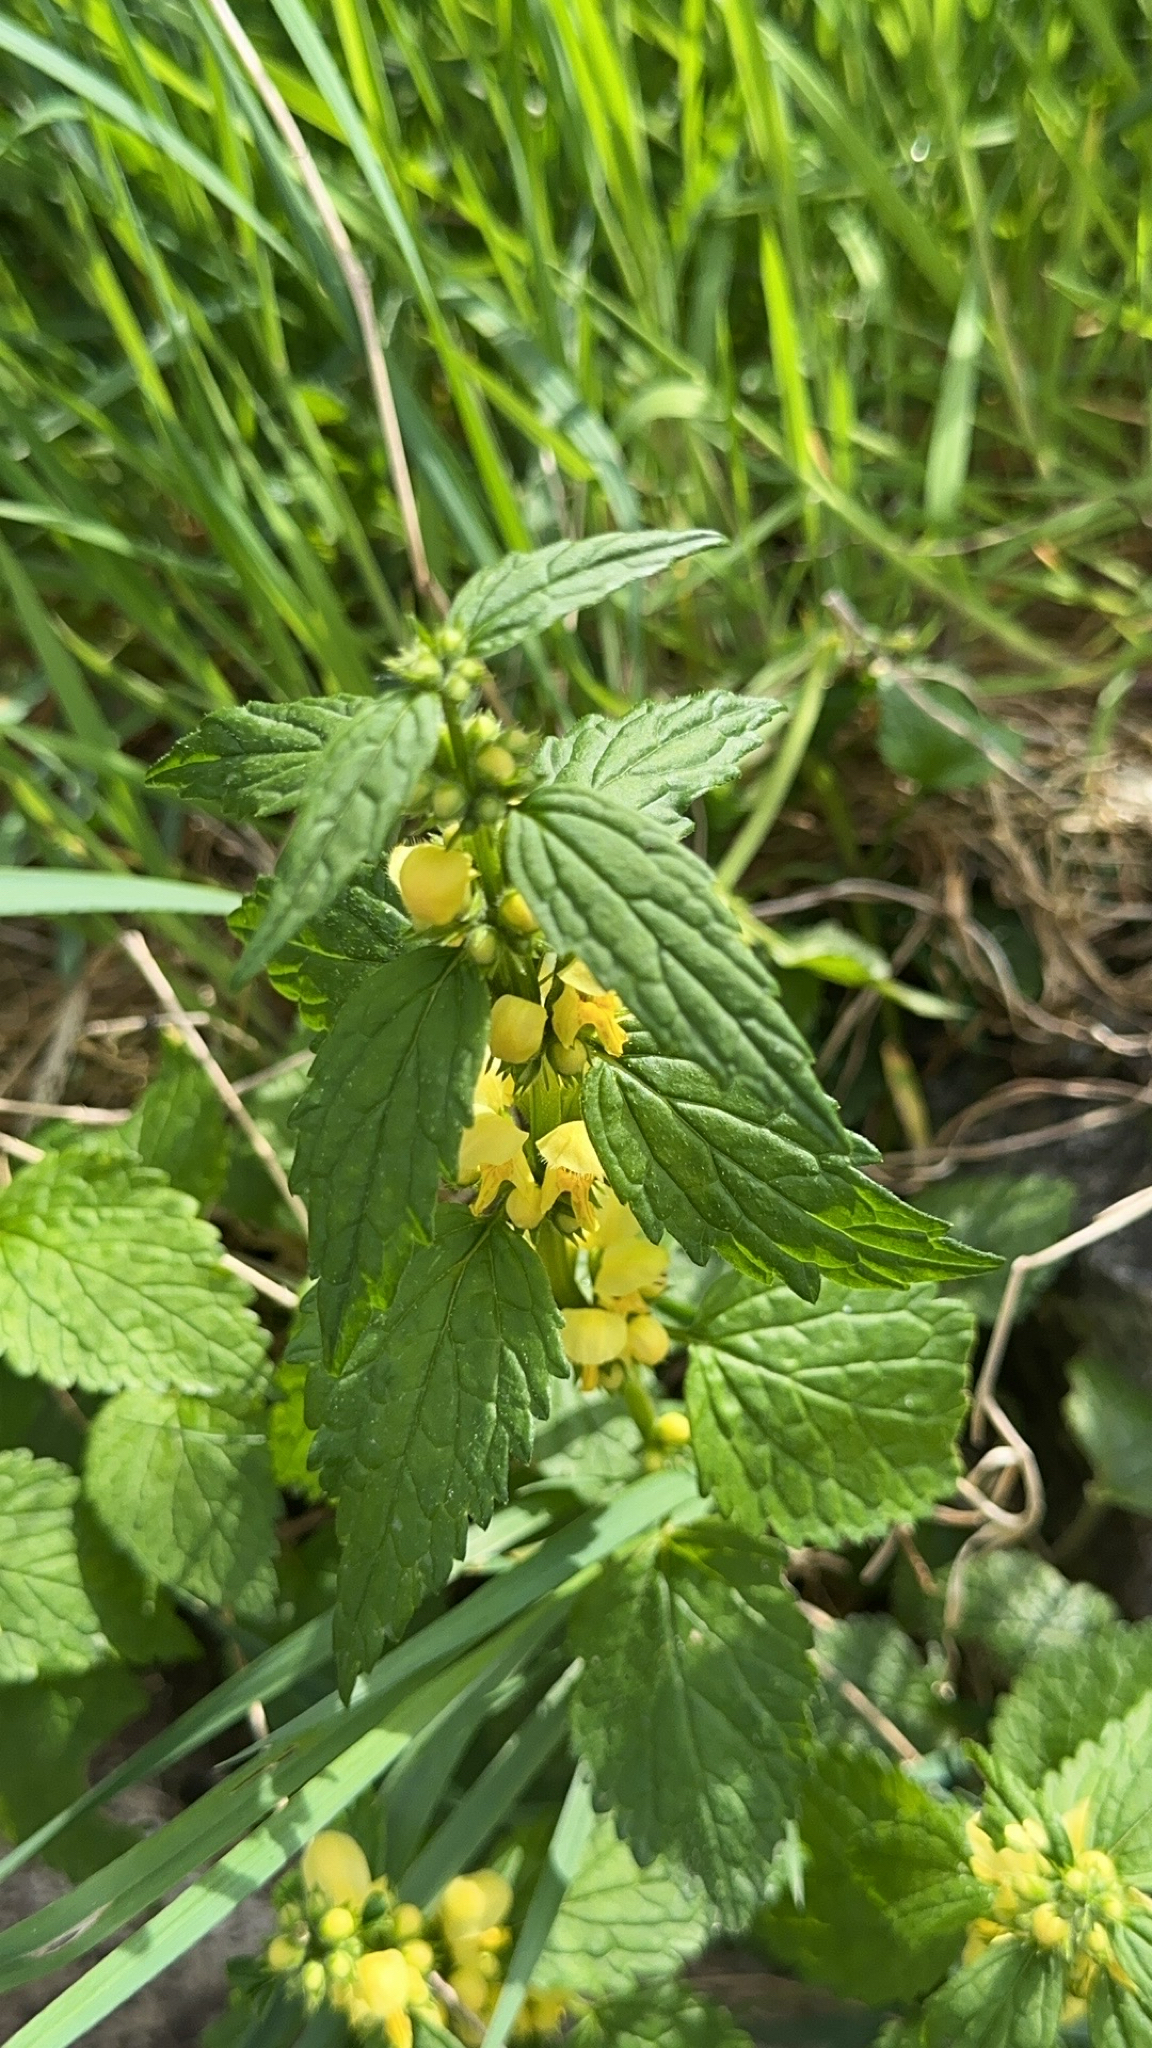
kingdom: Plantae
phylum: Tracheophyta
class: Magnoliopsida
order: Lamiales
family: Lamiaceae
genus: Lamium
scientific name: Lamium galeobdolon
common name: Yellow archangel
